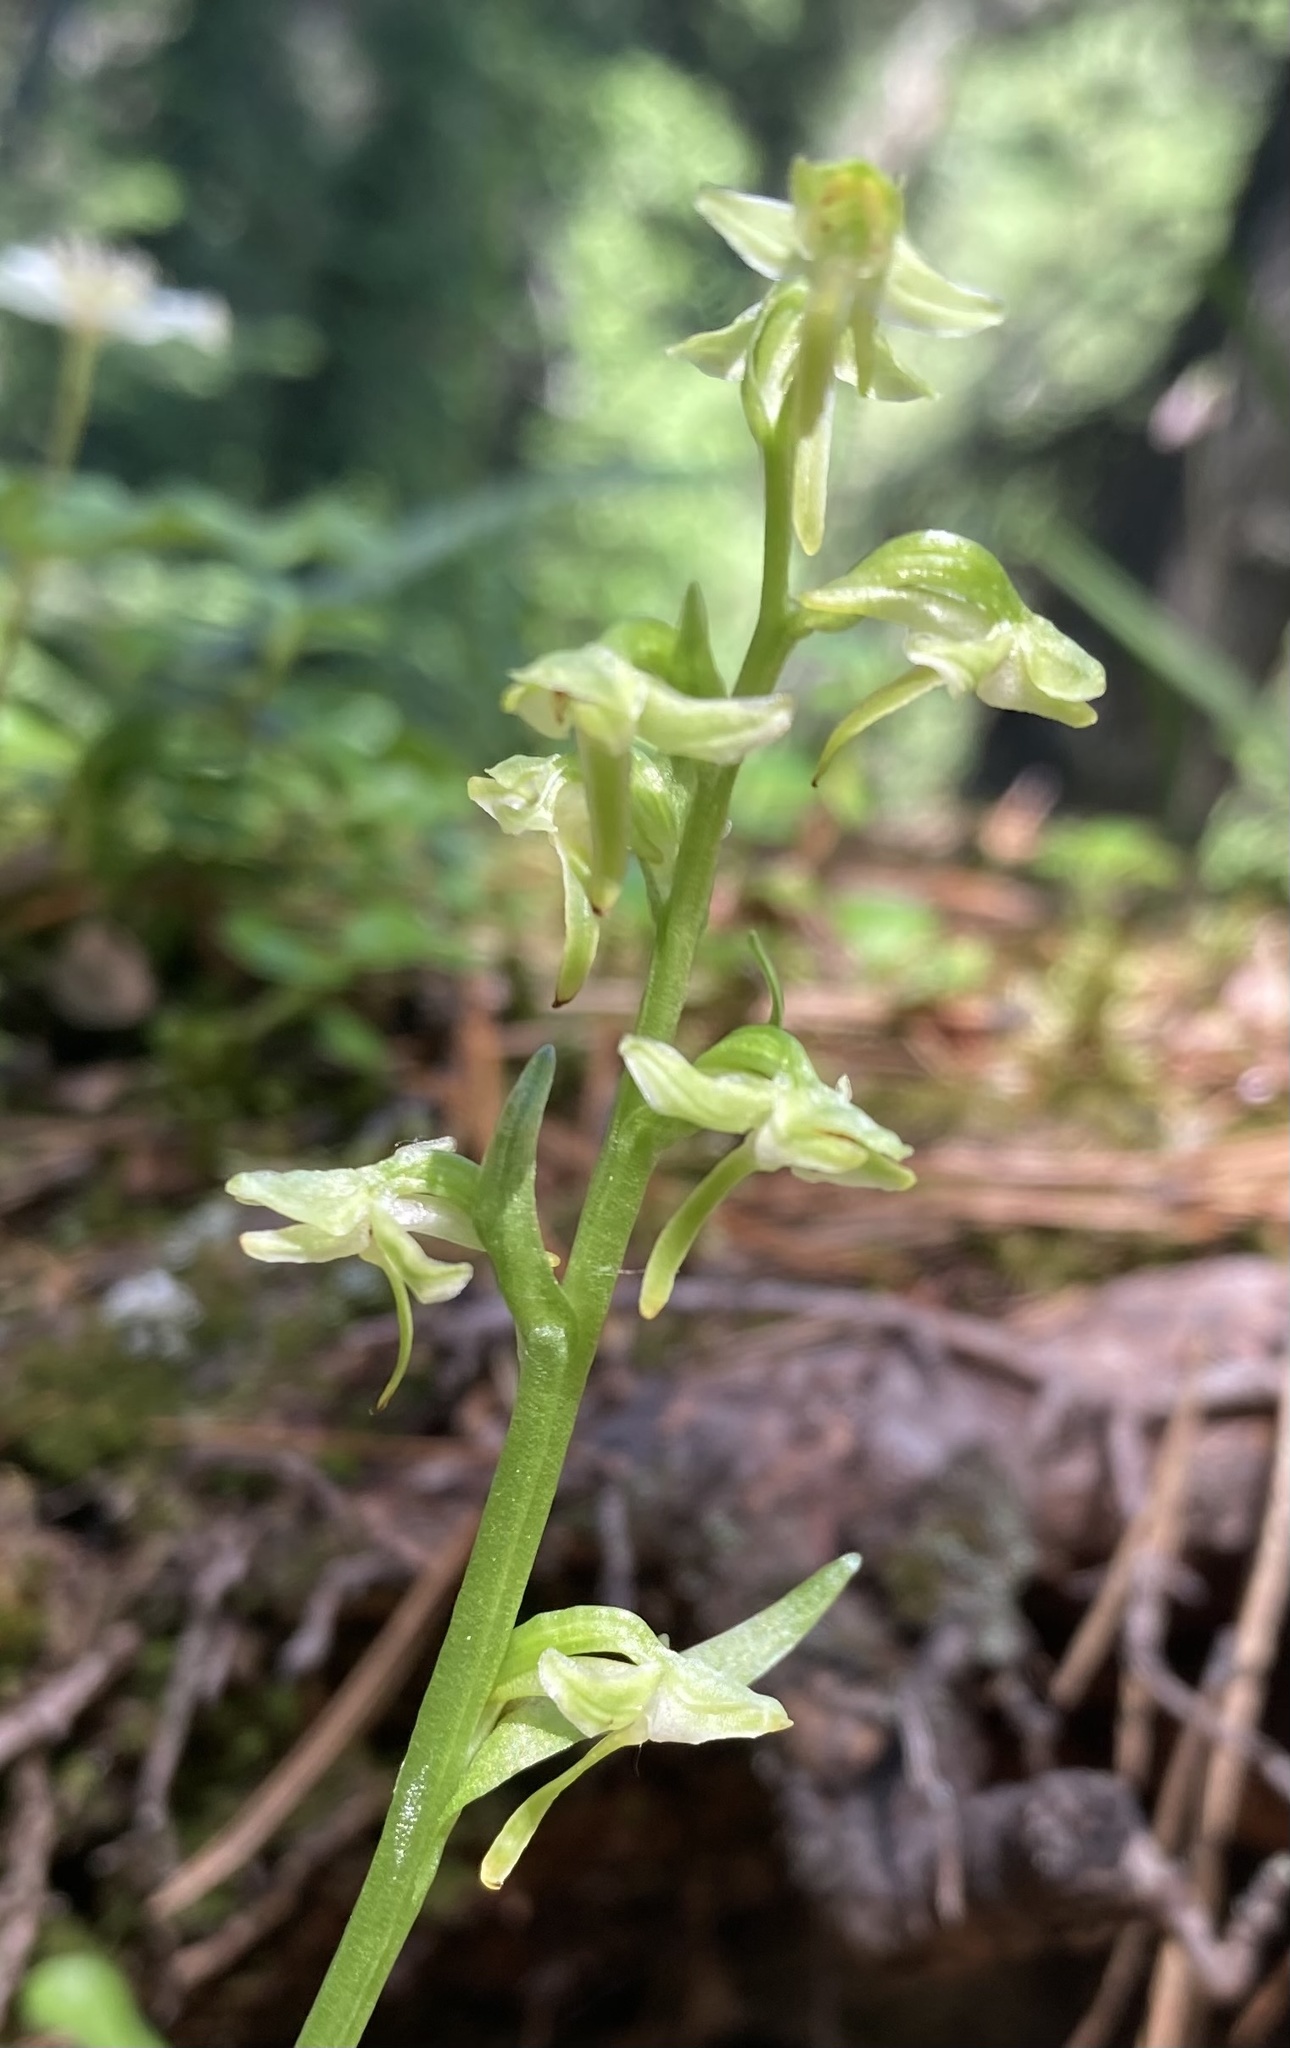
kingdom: Plantae
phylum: Tracheophyta
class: Liliopsida
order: Asparagales
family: Orchidaceae
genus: Platanthera
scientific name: Platanthera obtusata
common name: Blunt bog orchid
